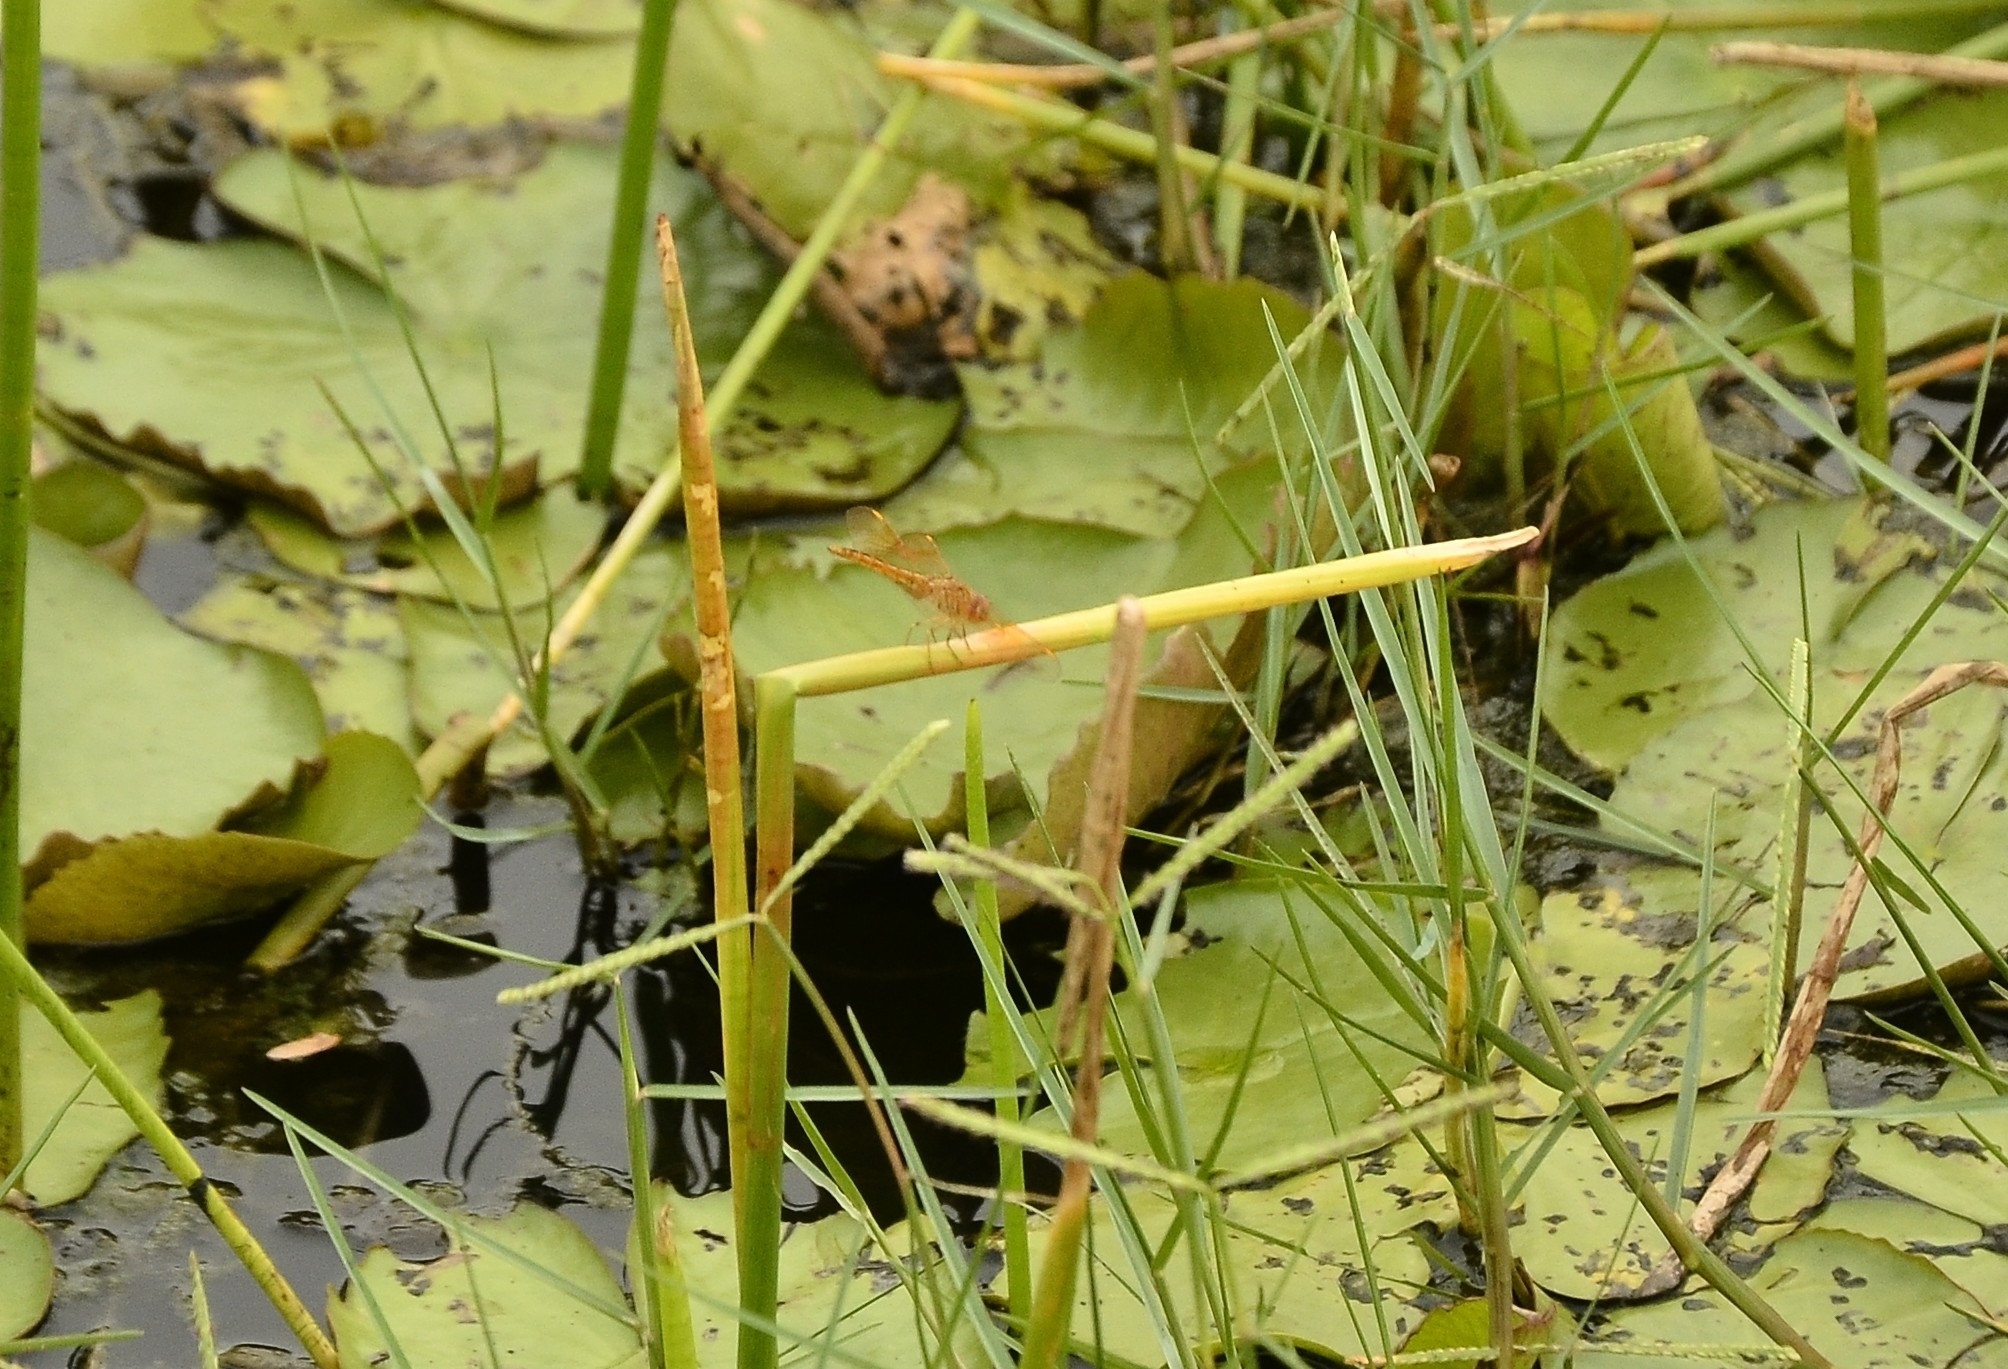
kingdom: Animalia
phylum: Arthropoda
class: Insecta
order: Odonata
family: Libellulidae
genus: Brachythemis
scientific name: Brachythemis contaminata
